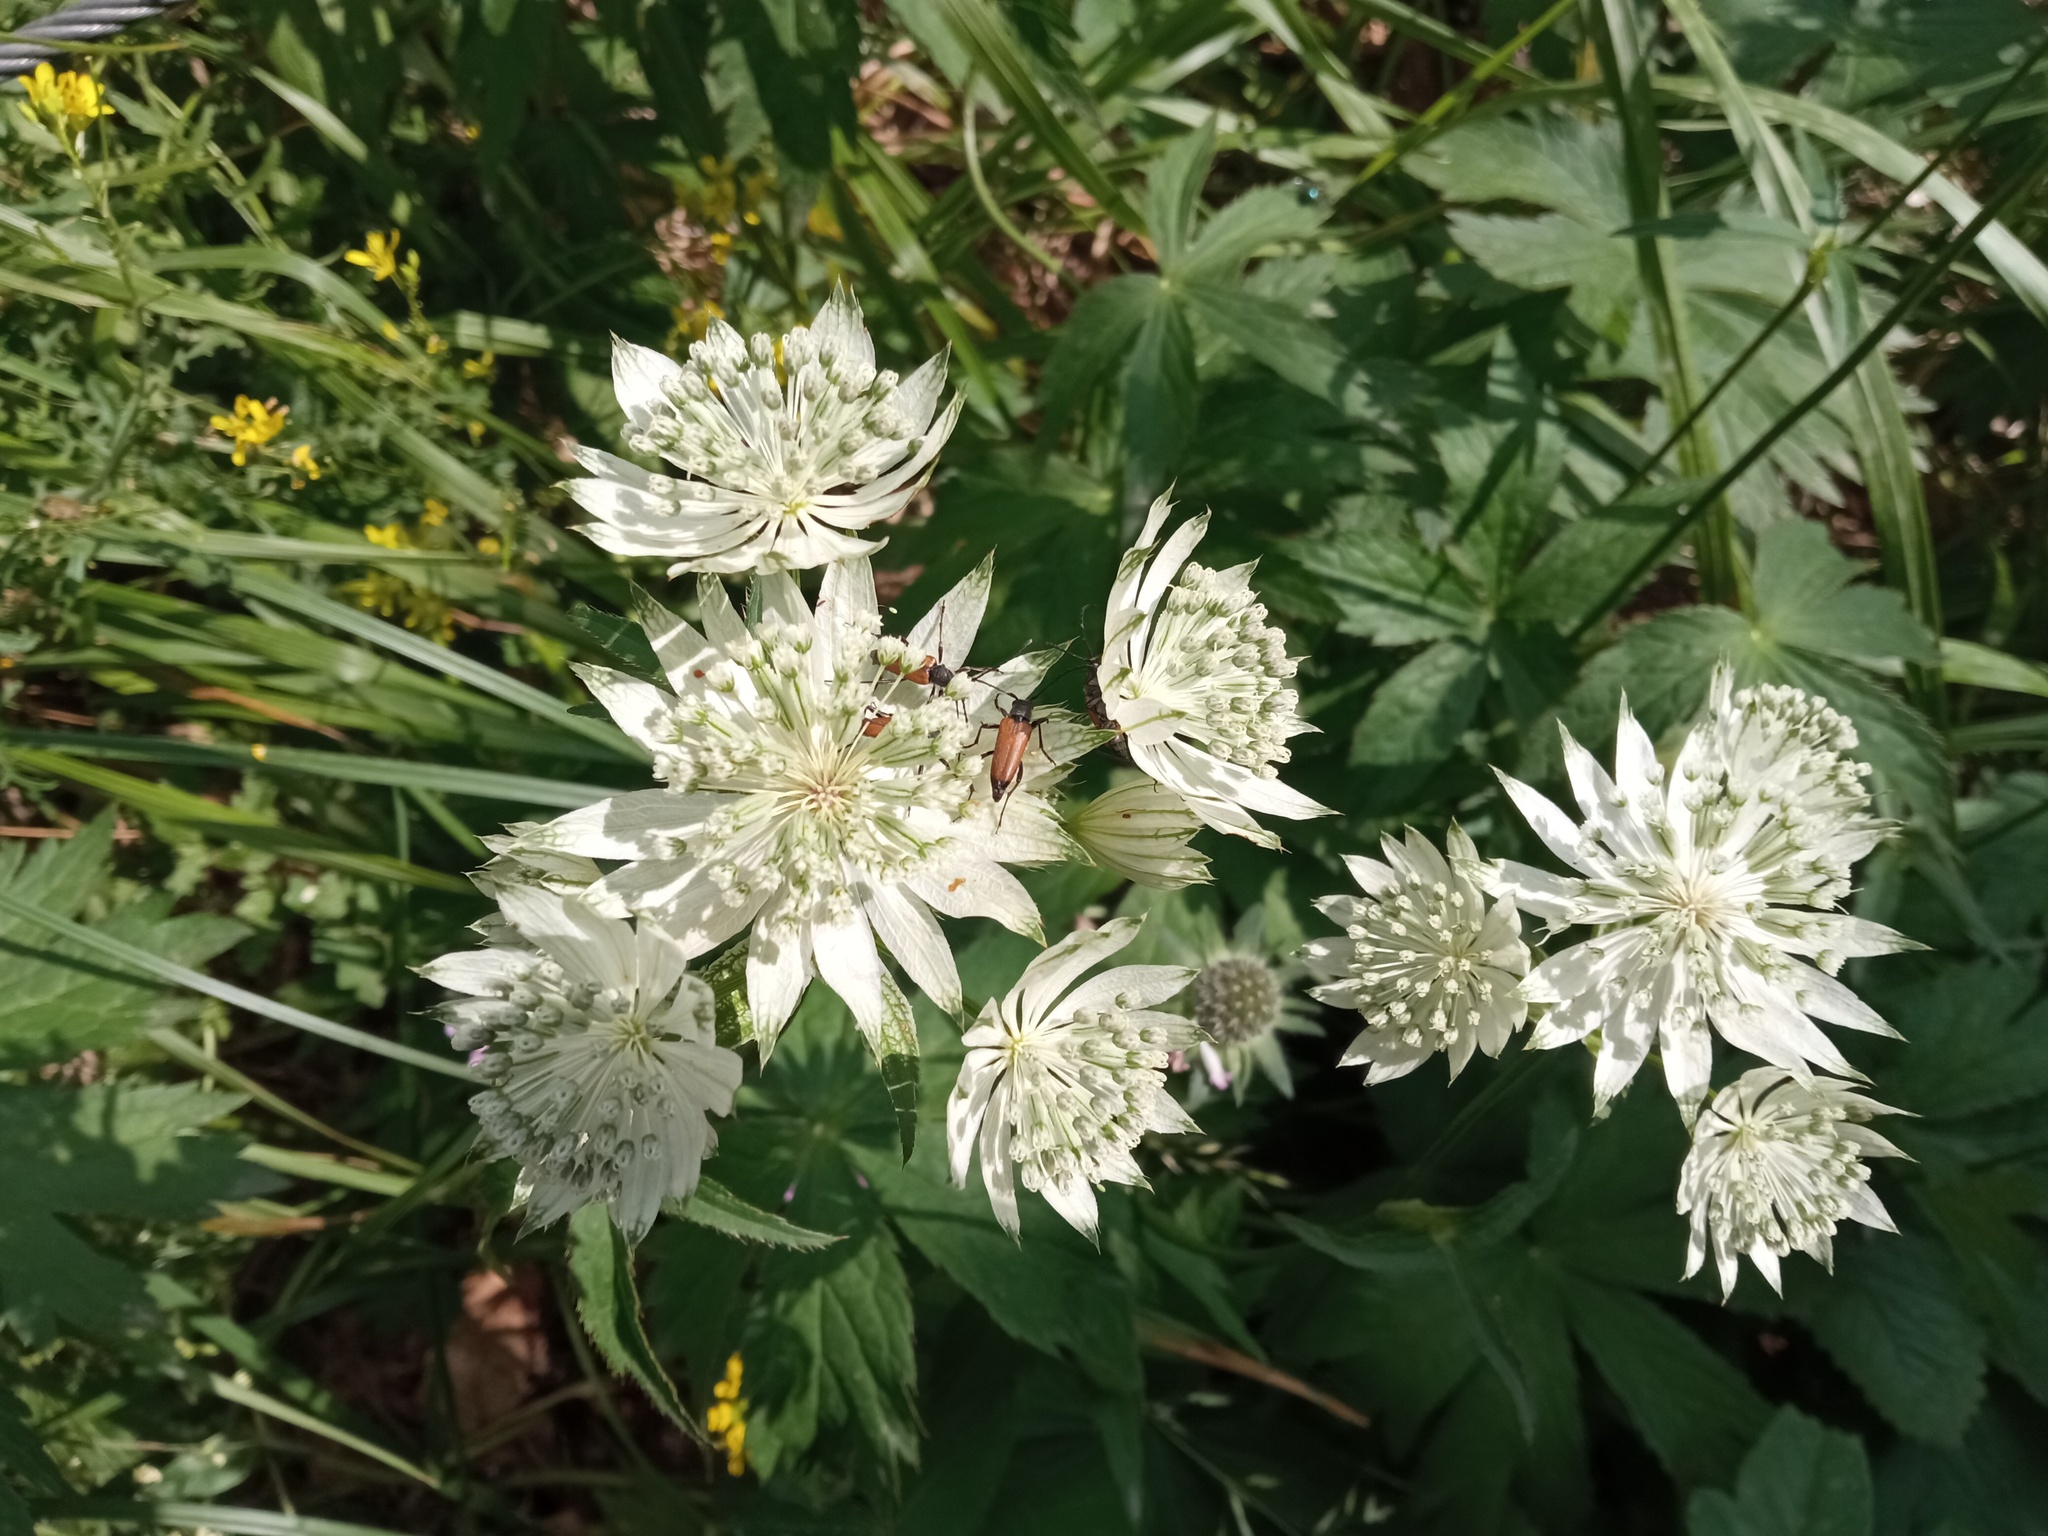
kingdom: Plantae
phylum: Tracheophyta
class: Magnoliopsida
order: Apiales
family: Apiaceae
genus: Astrantia
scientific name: Astrantia major
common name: Greater masterwort
